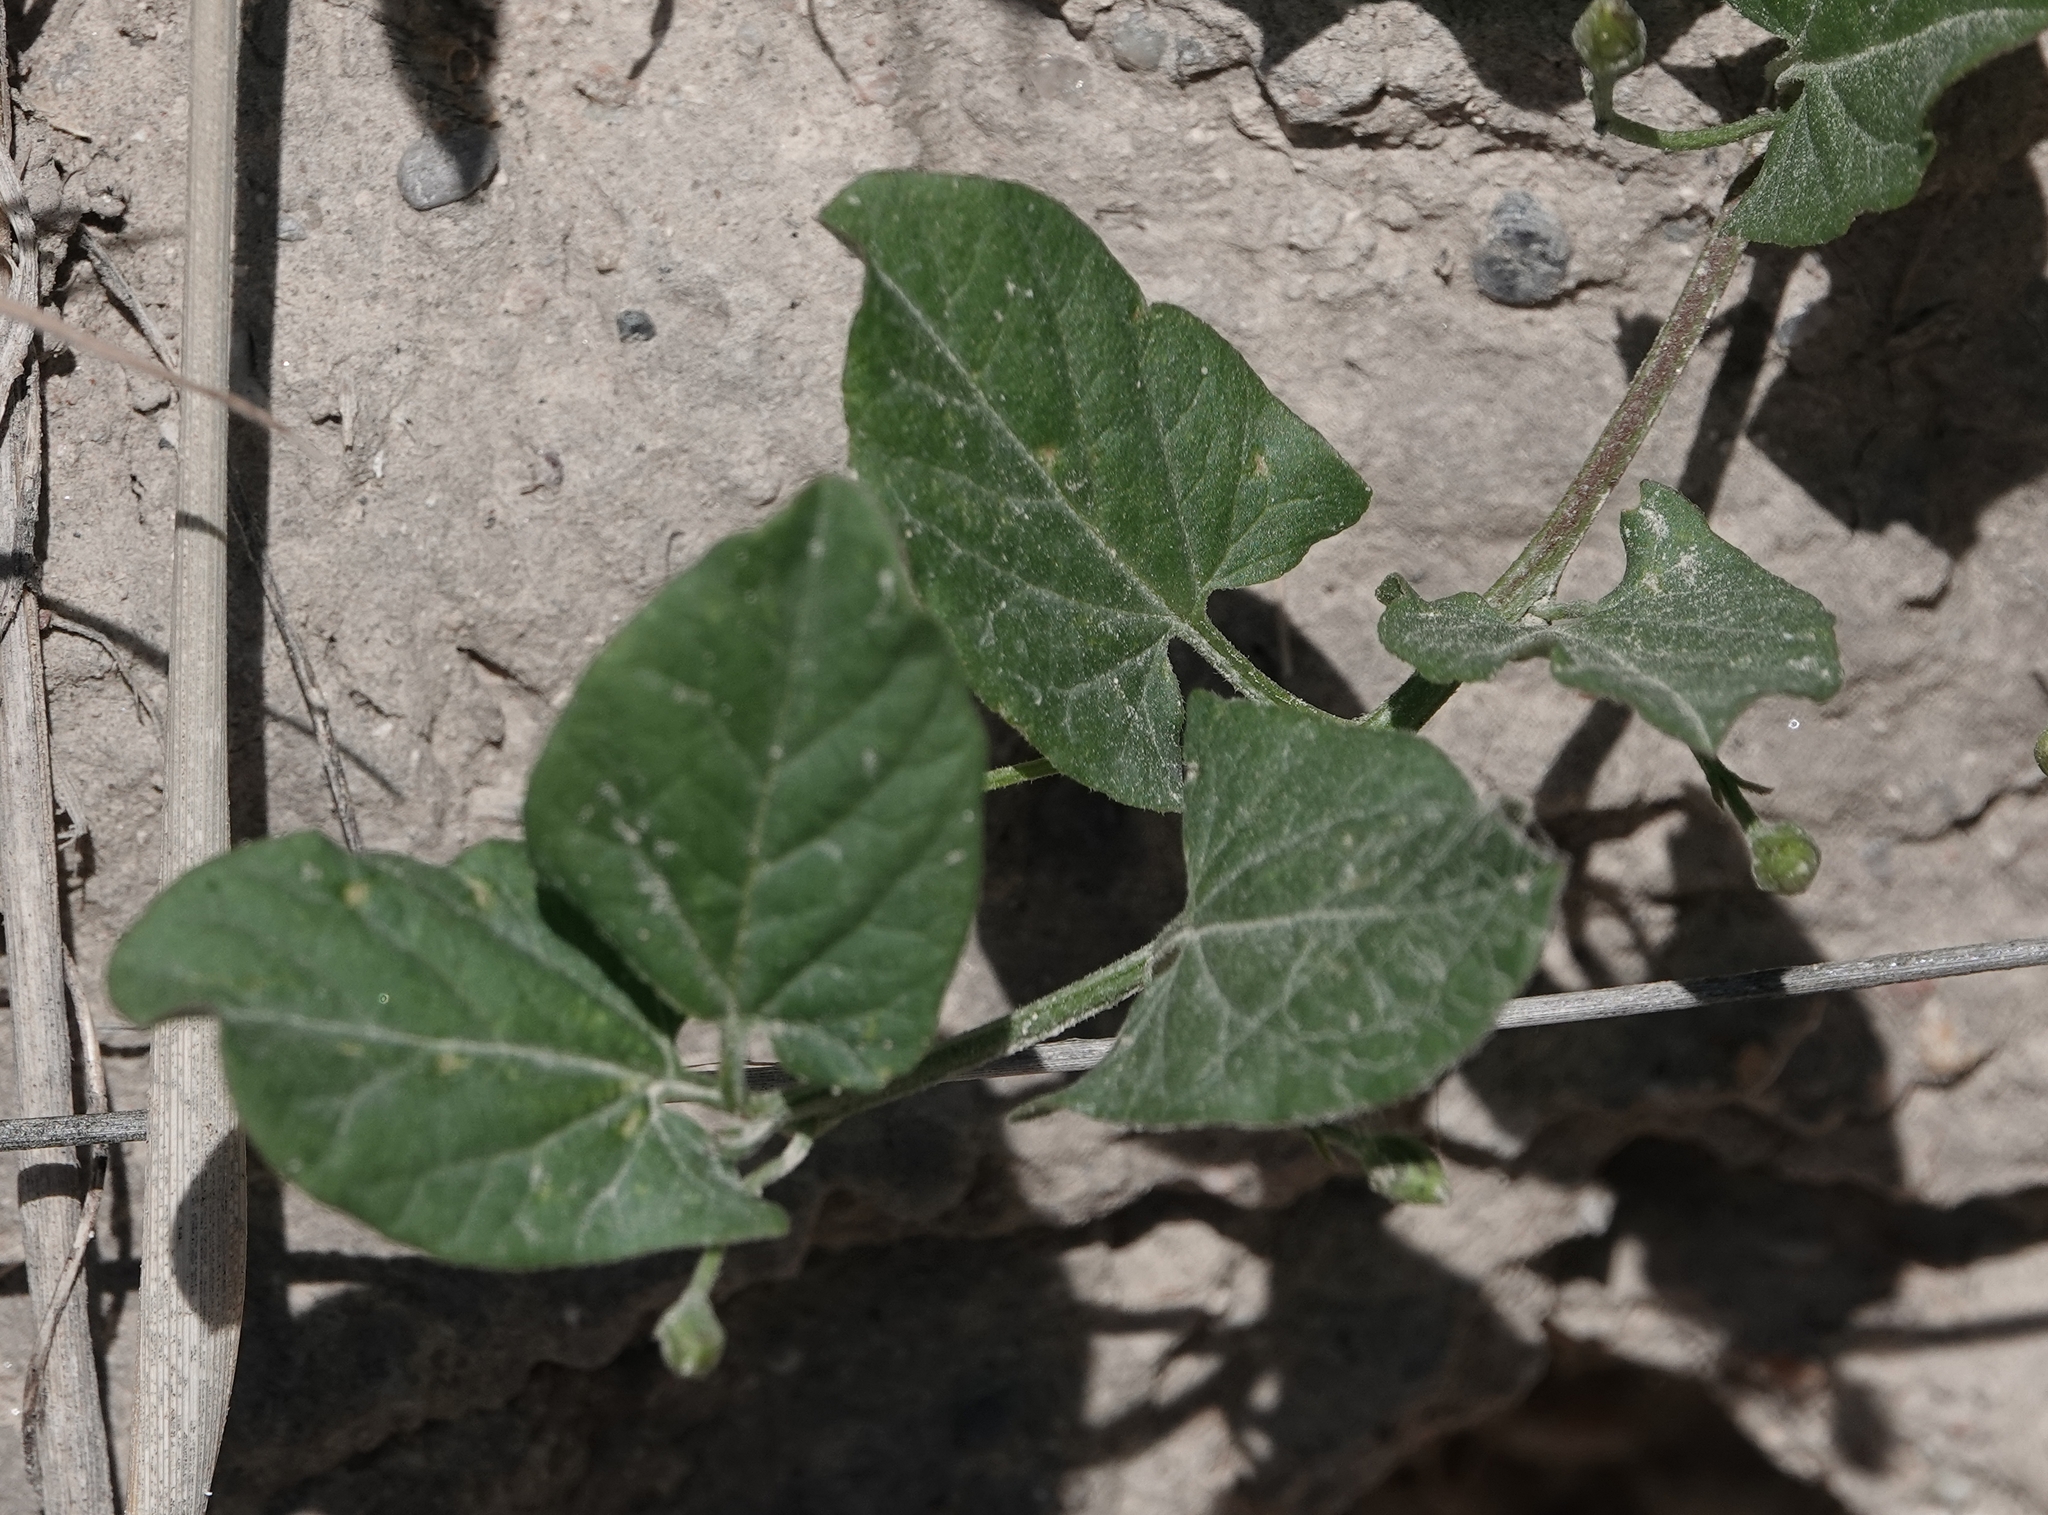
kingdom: Plantae
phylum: Tracheophyta
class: Magnoliopsida
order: Solanales
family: Convolvulaceae
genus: Convolvulus
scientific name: Convolvulus arvensis
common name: Field bindweed
